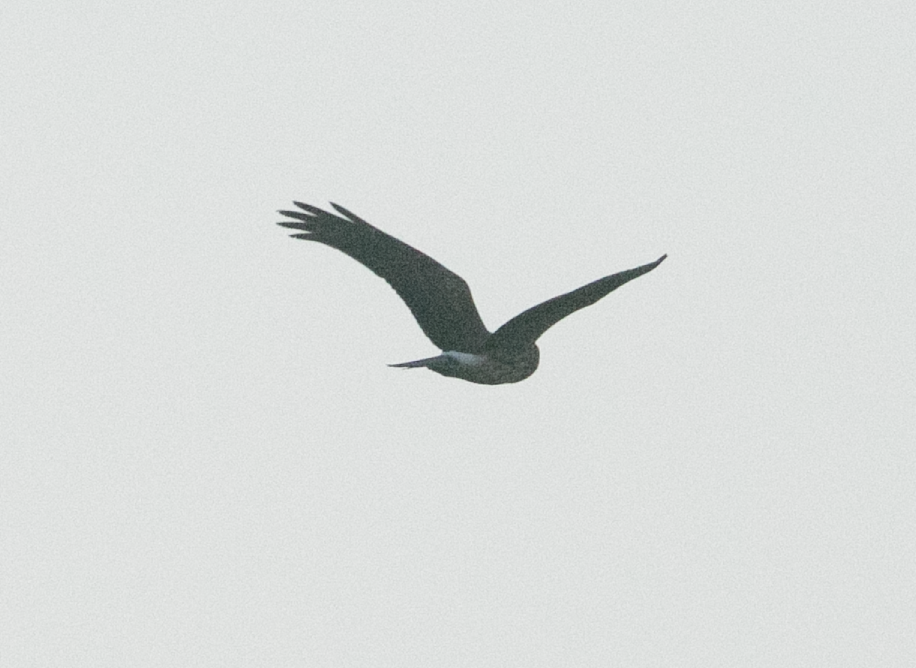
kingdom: Animalia
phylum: Chordata
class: Aves
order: Accipitriformes
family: Accipitridae
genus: Circus
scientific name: Circus cyaneus
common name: Hen harrier
